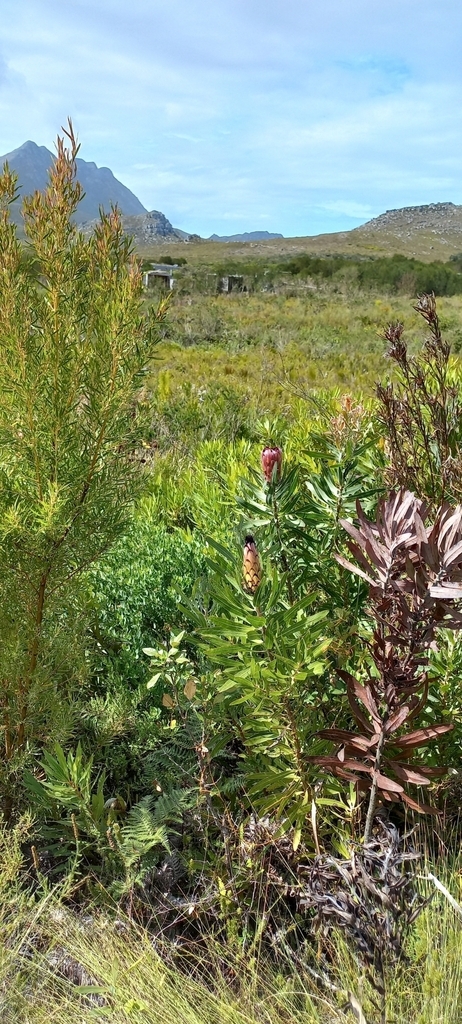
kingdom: Plantae
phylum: Tracheophyta
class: Magnoliopsida
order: Proteales
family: Proteaceae
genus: Protea
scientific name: Protea laurifolia
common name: Grey-leaf sugarbsh
